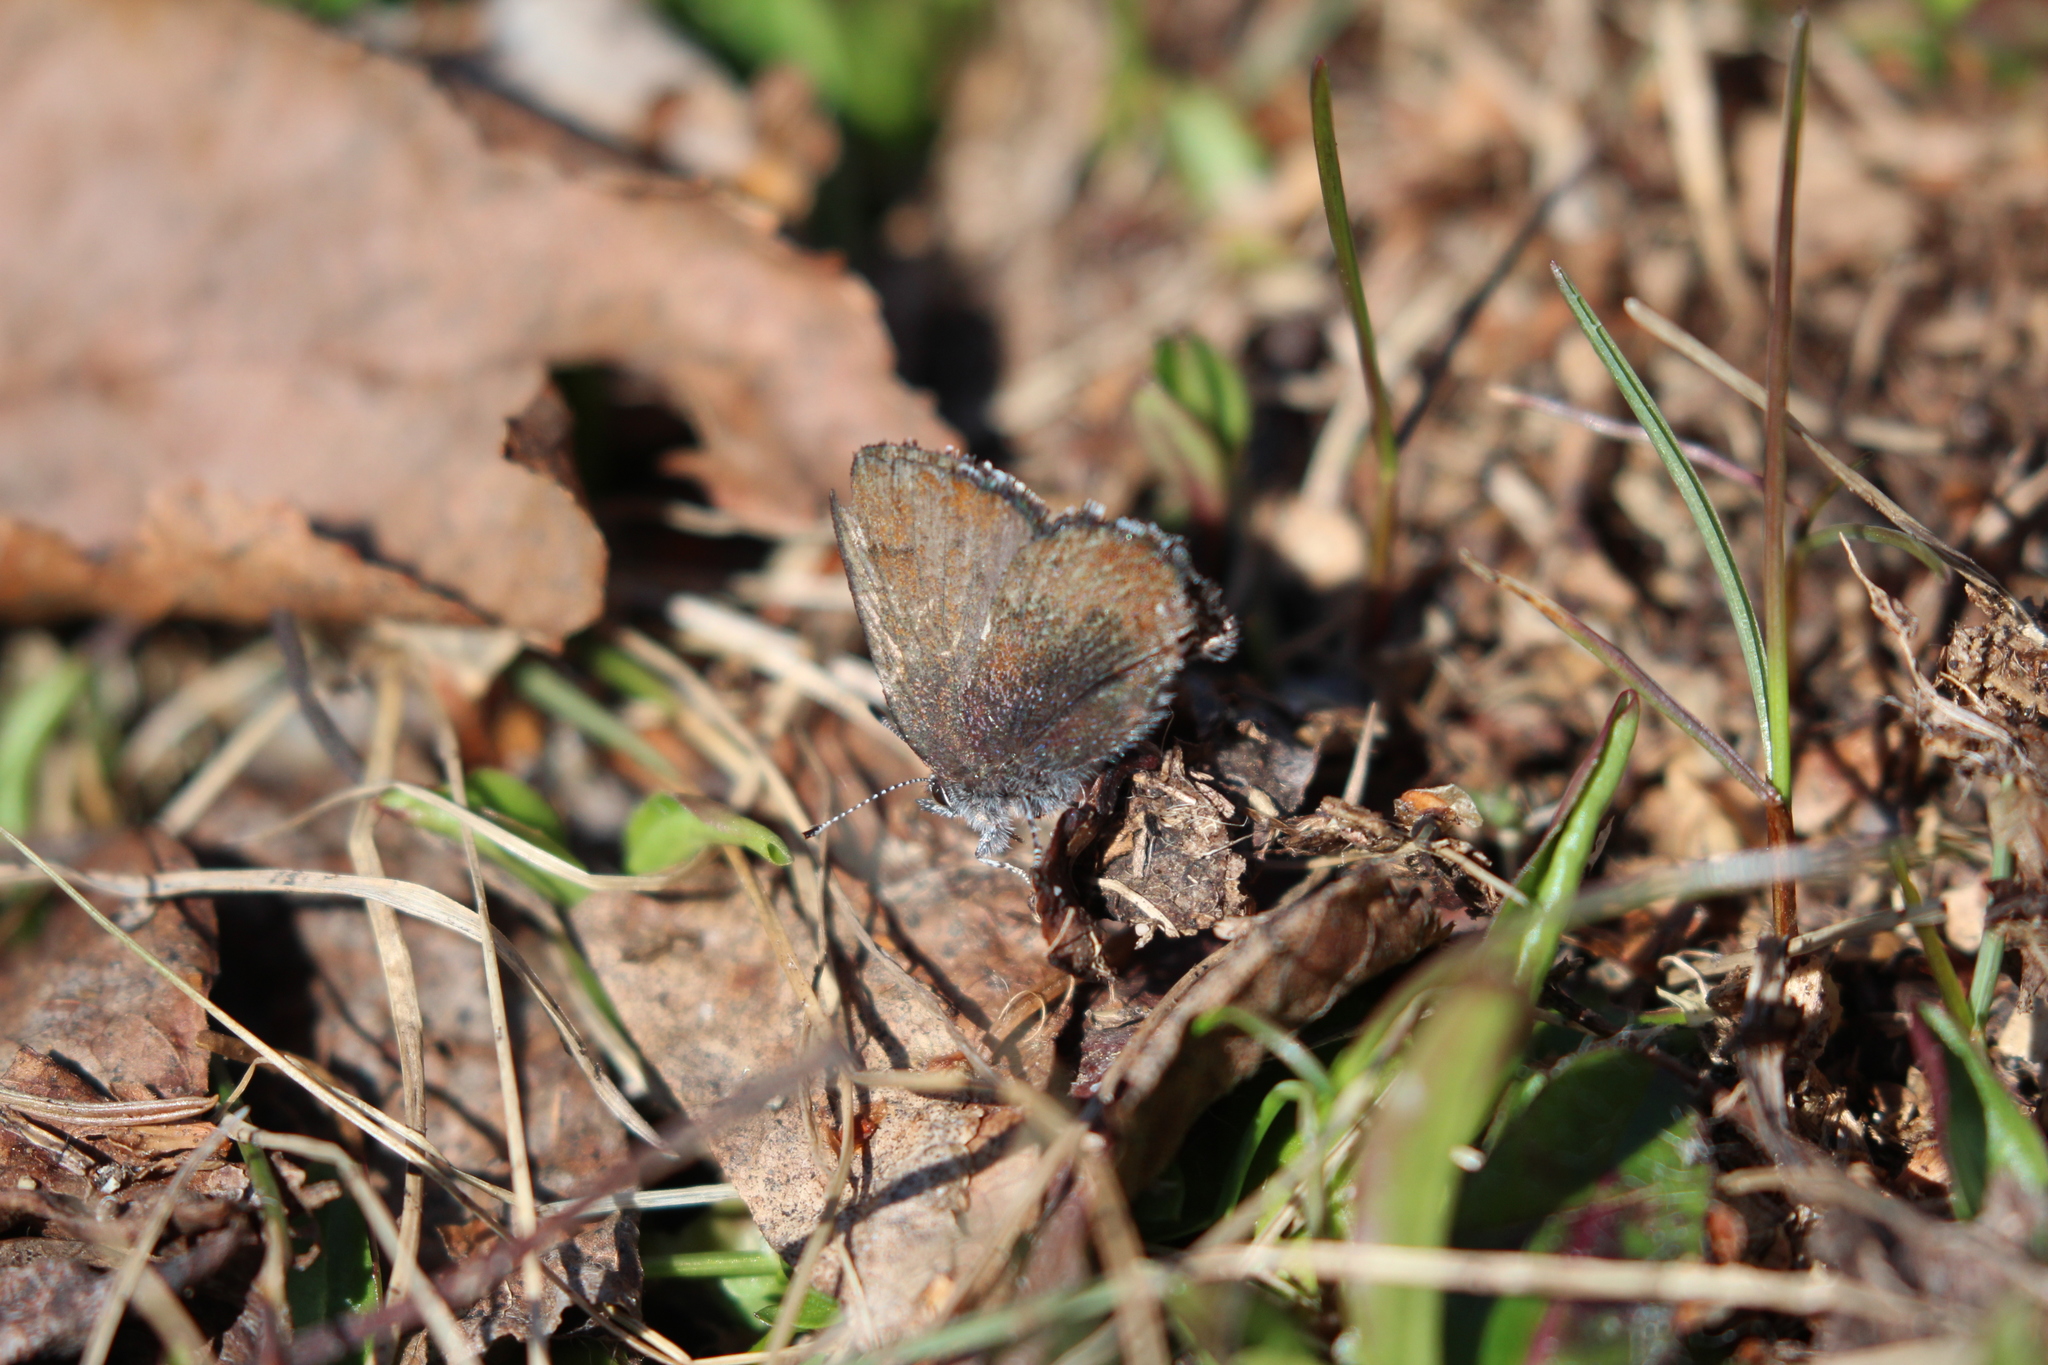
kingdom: Animalia
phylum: Arthropoda
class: Insecta
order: Lepidoptera
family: Lycaenidae
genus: Incisalia
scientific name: Incisalia irioides
